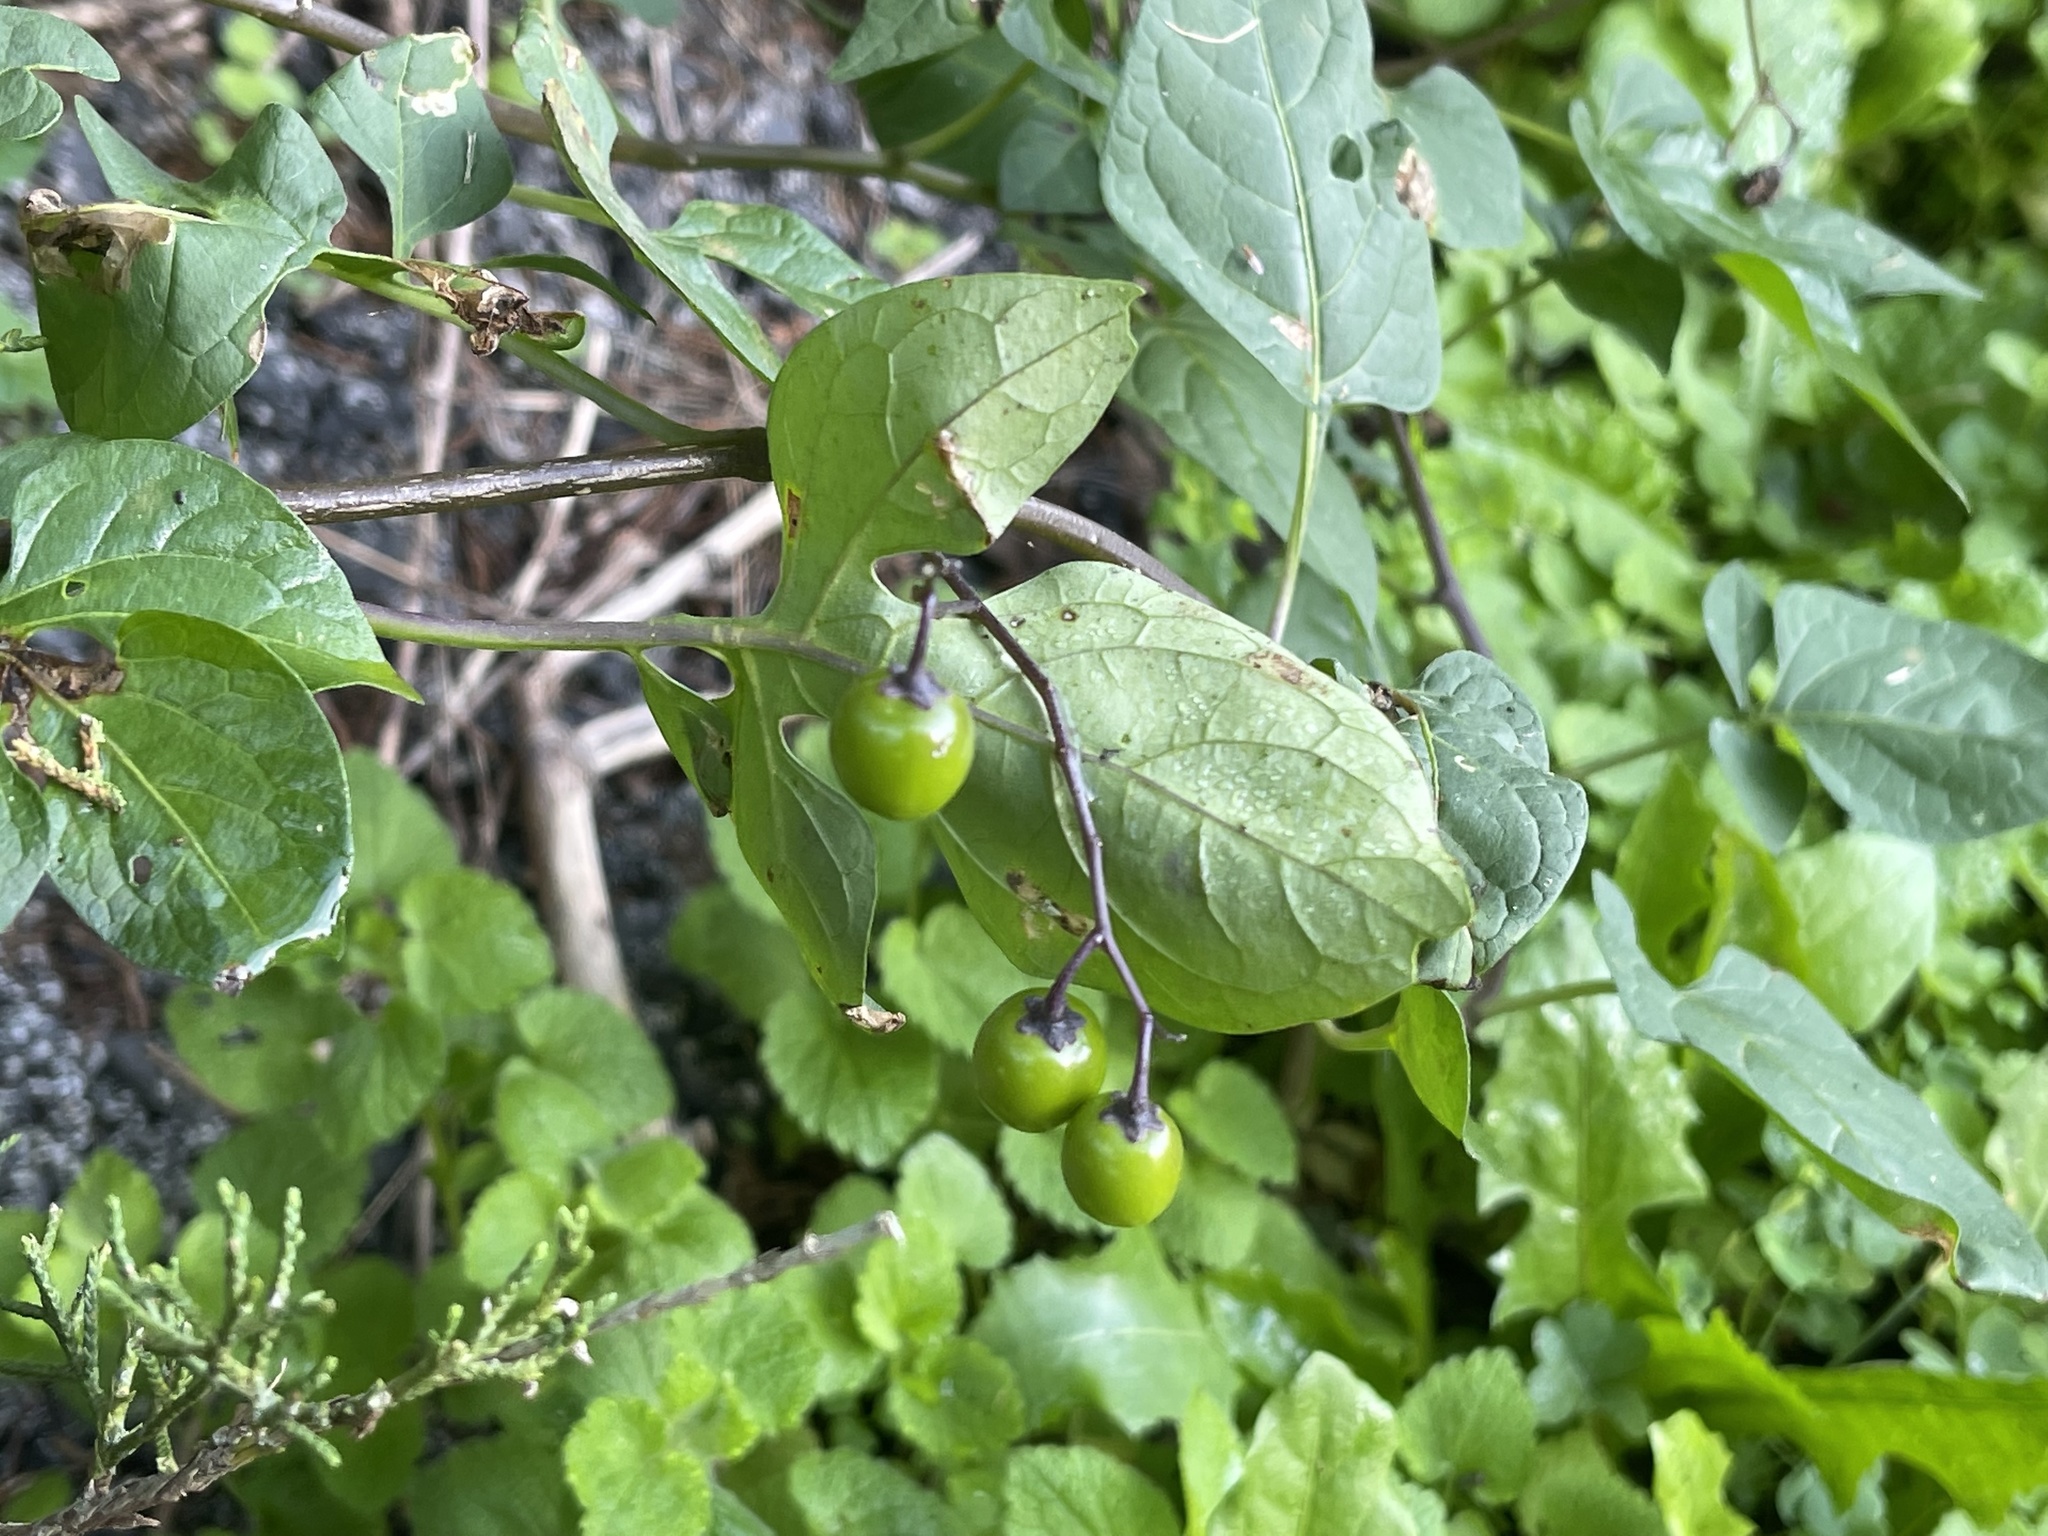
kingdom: Plantae
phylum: Tracheophyta
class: Magnoliopsida
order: Solanales
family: Solanaceae
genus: Solanum
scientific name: Solanum dulcamara
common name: Climbing nightshade
